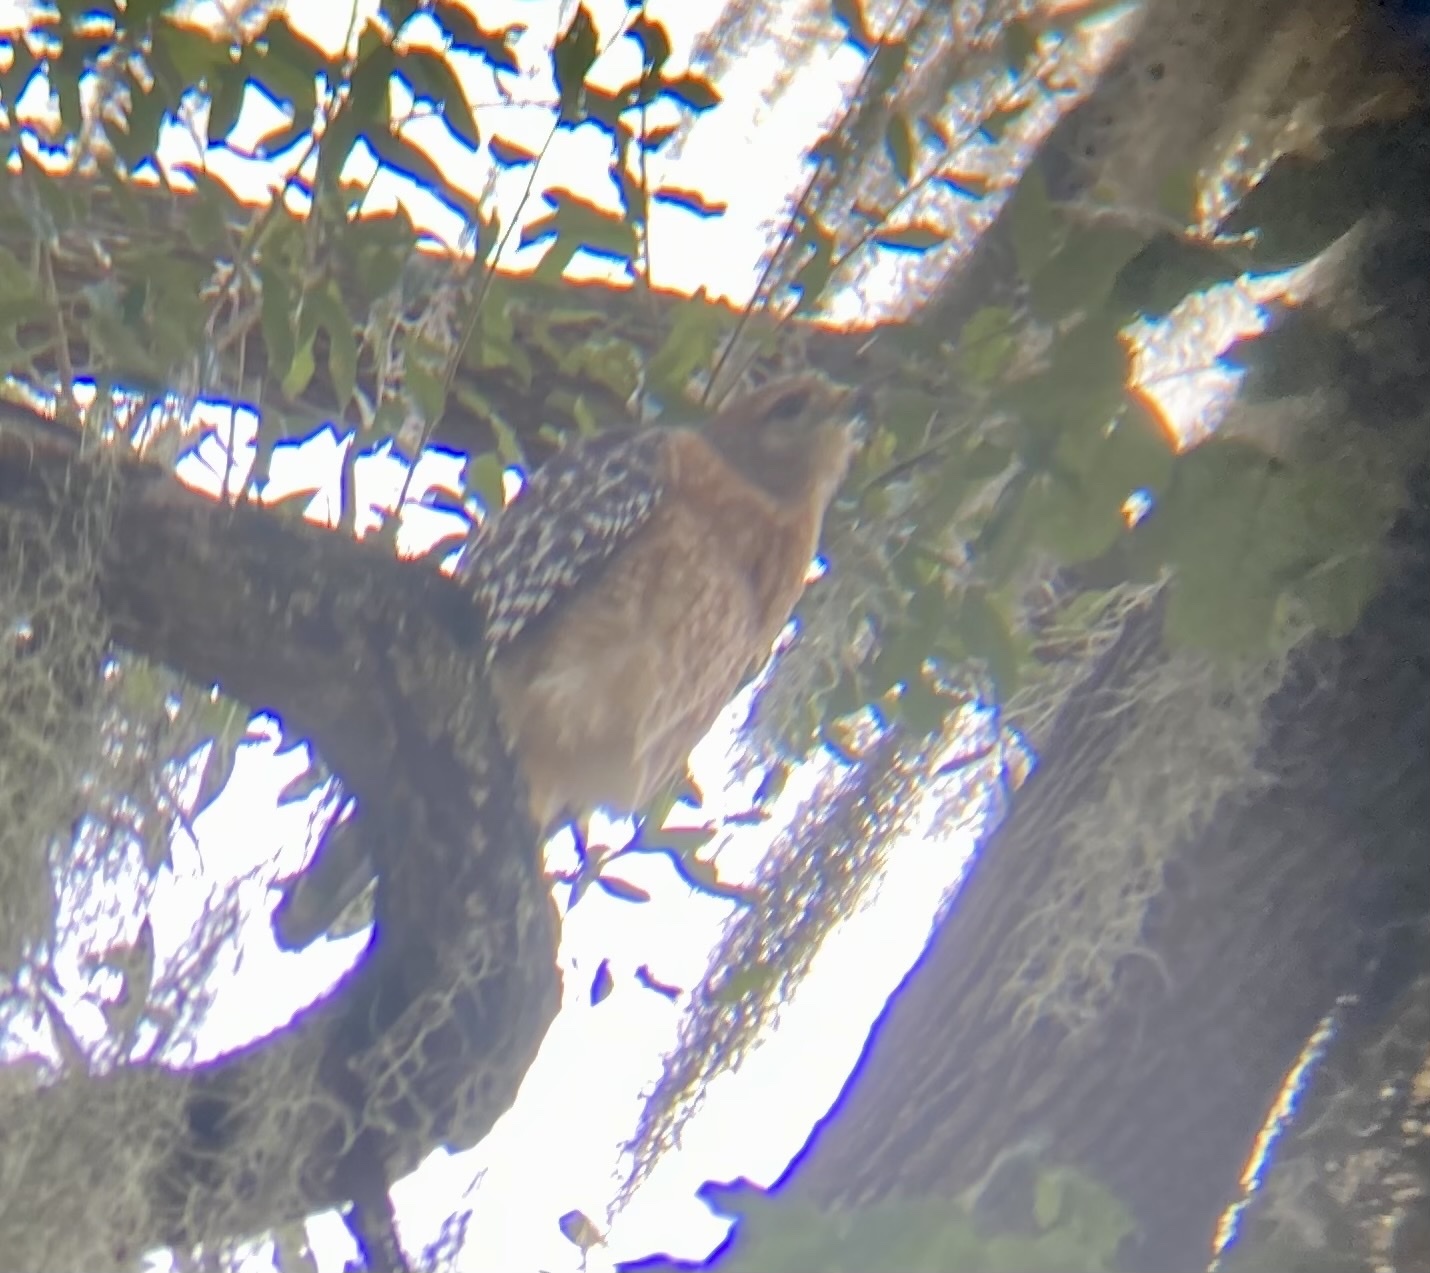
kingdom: Animalia
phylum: Chordata
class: Aves
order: Accipitriformes
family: Accipitridae
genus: Buteo
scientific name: Buteo lineatus
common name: Red-shouldered hawk
